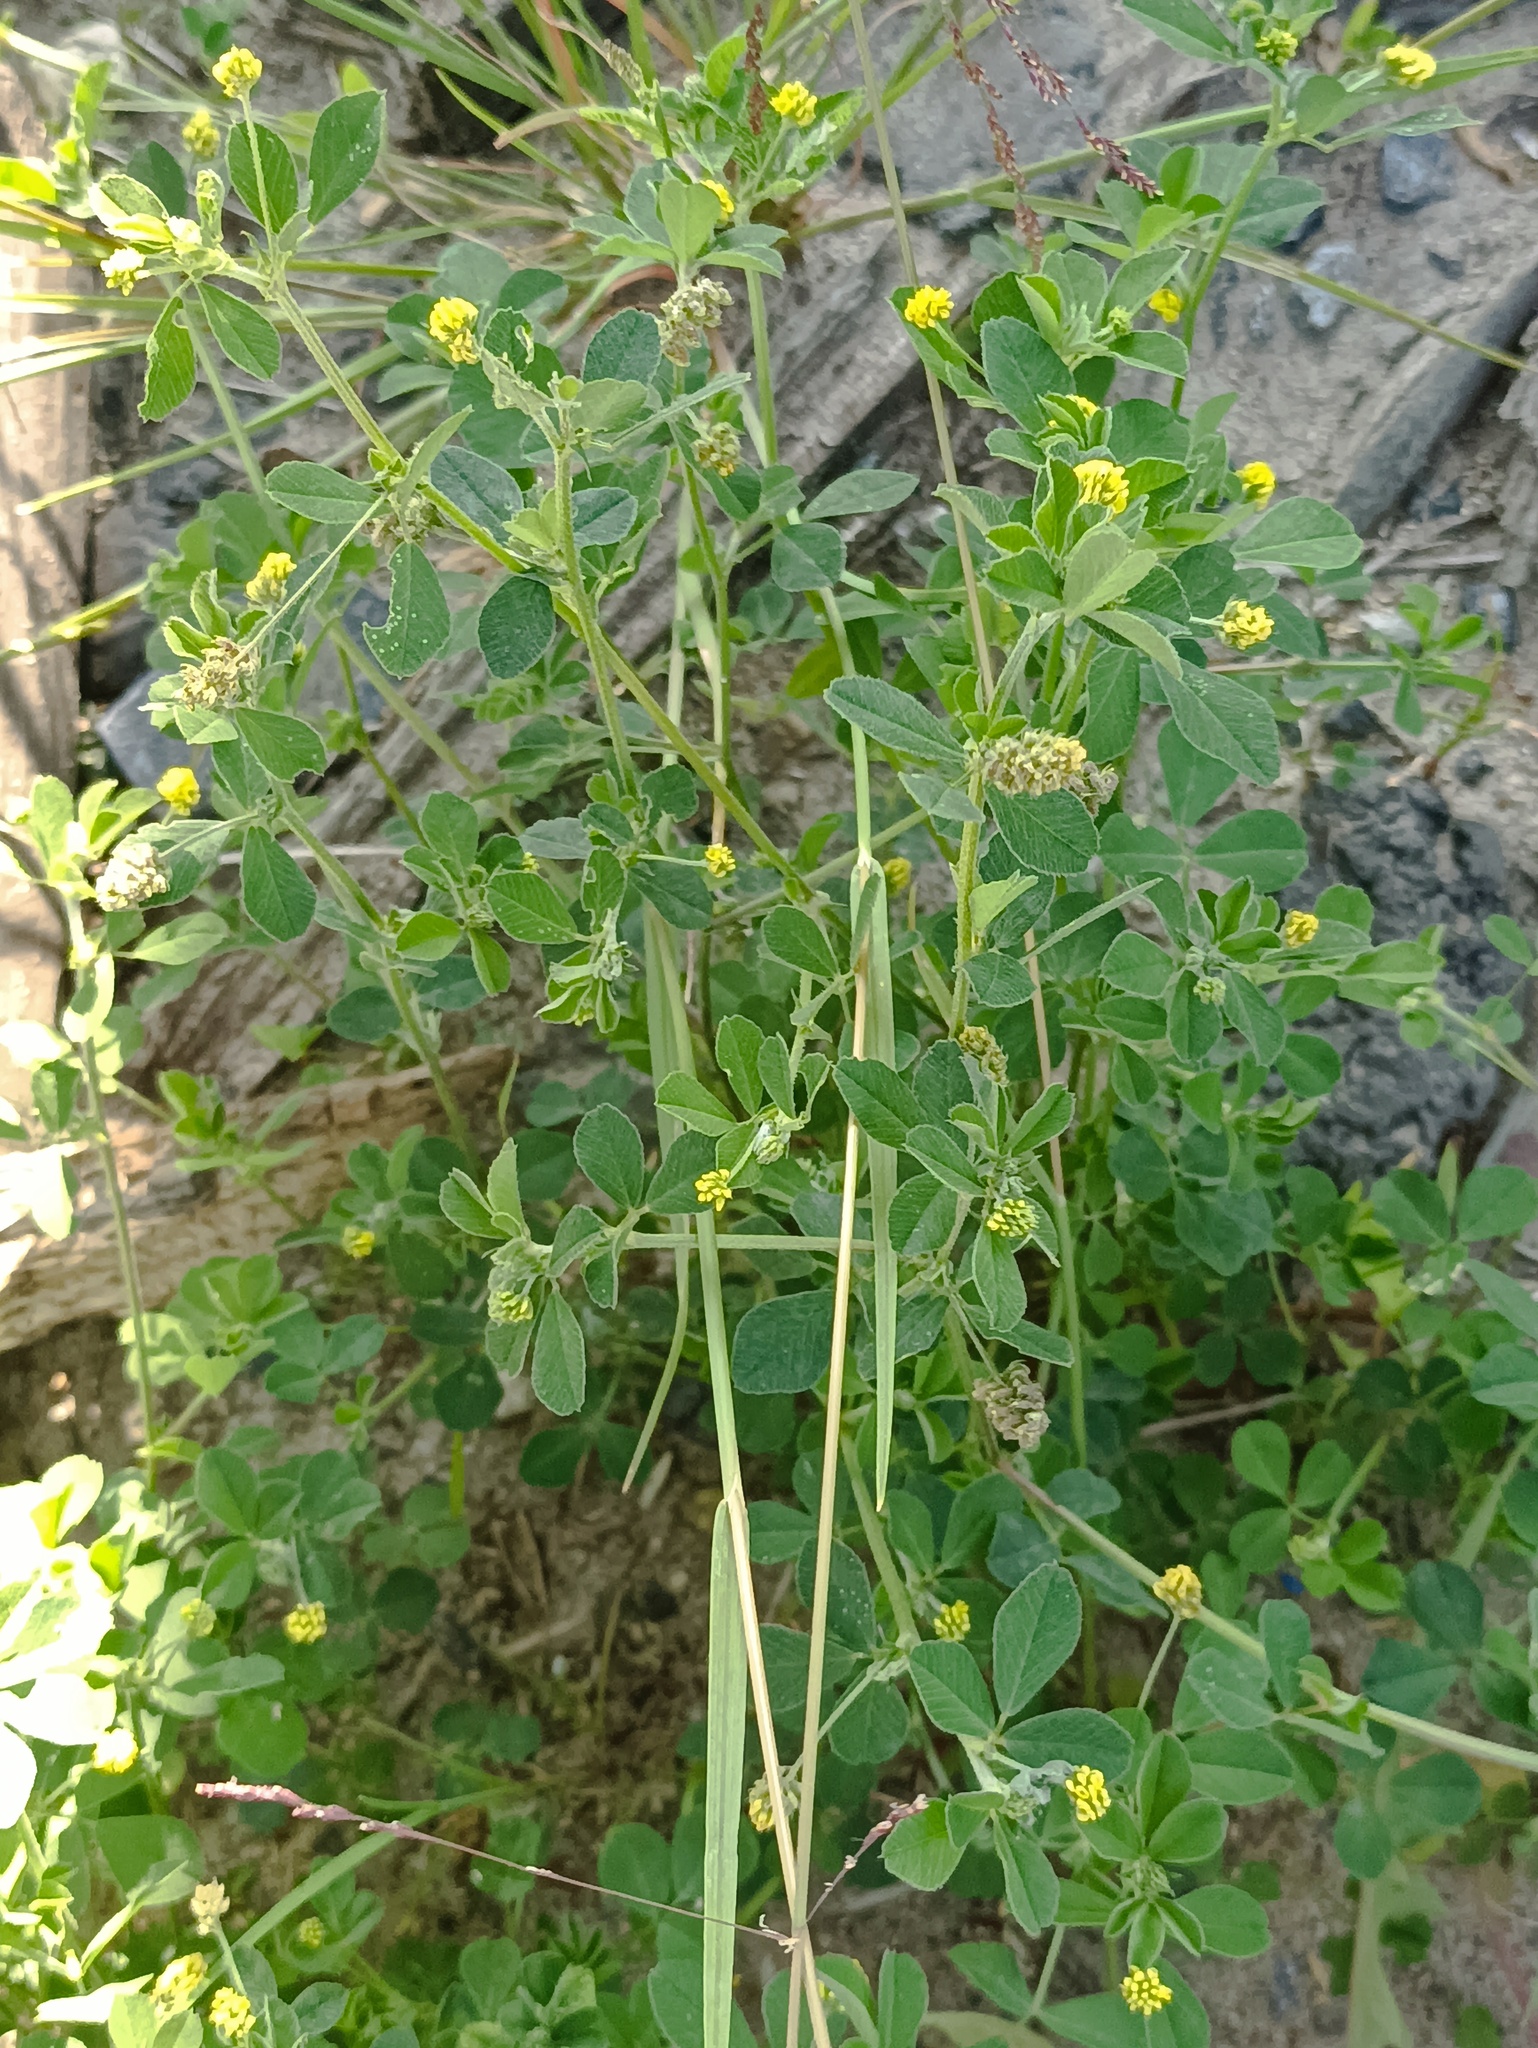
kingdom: Plantae
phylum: Tracheophyta
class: Magnoliopsida
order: Fabales
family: Fabaceae
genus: Medicago
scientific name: Medicago lupulina
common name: Black medick
